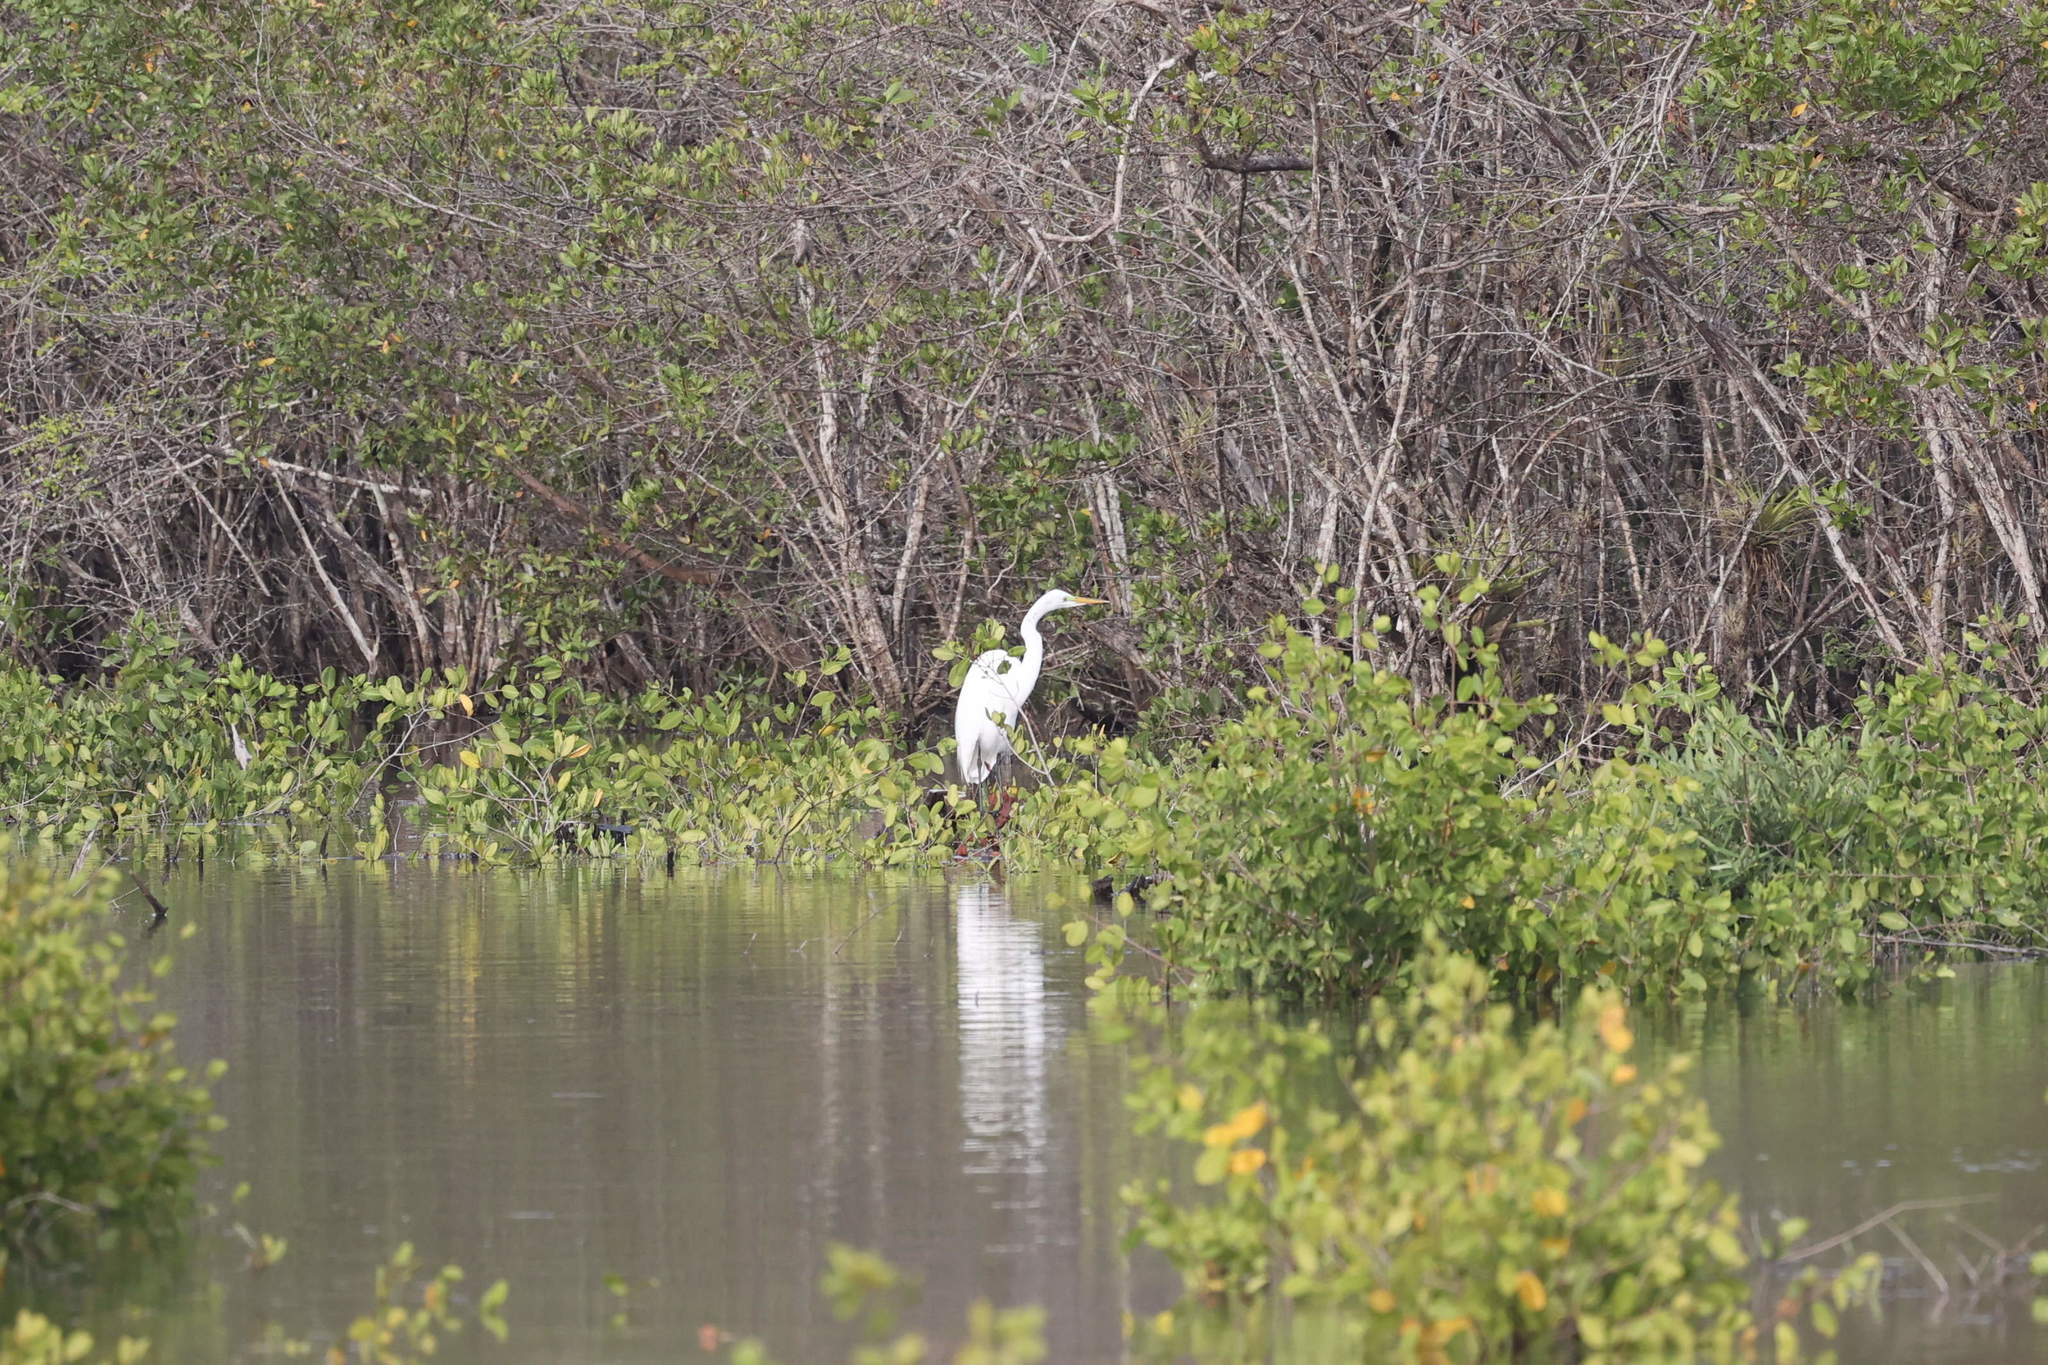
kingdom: Animalia
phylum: Chordata
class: Aves
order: Pelecaniformes
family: Ardeidae
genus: Ardea
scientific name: Ardea alba
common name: Great egret
